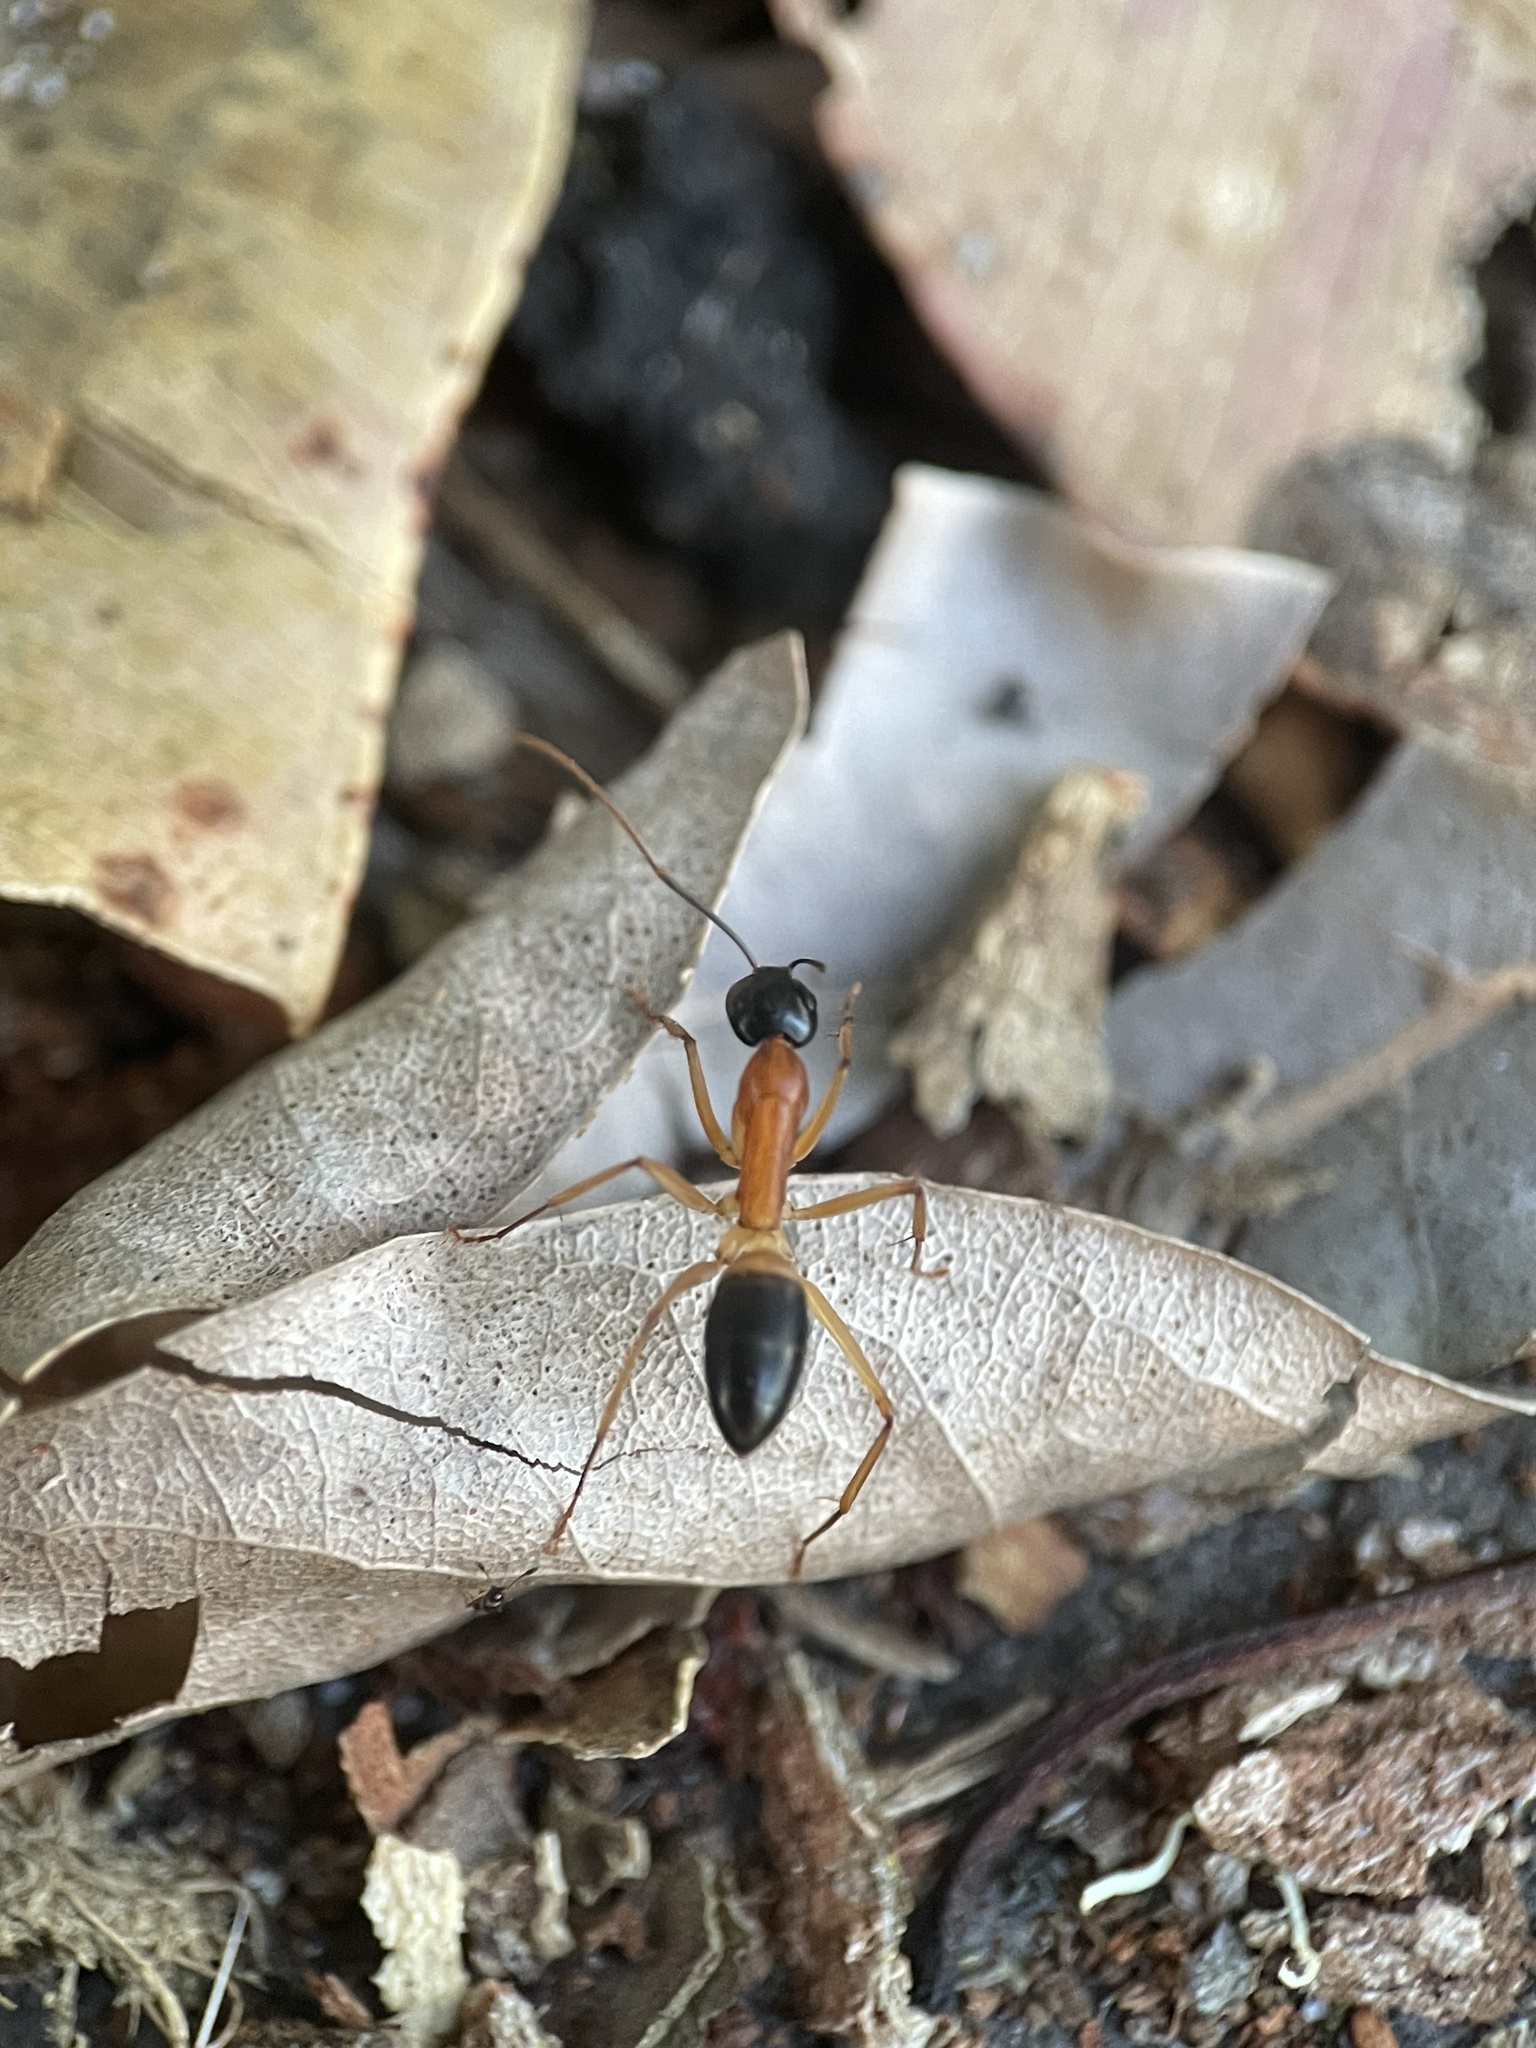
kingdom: Animalia
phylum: Arthropoda
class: Insecta
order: Hymenoptera
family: Formicidae
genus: Camponotus
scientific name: Camponotus consobrinus
